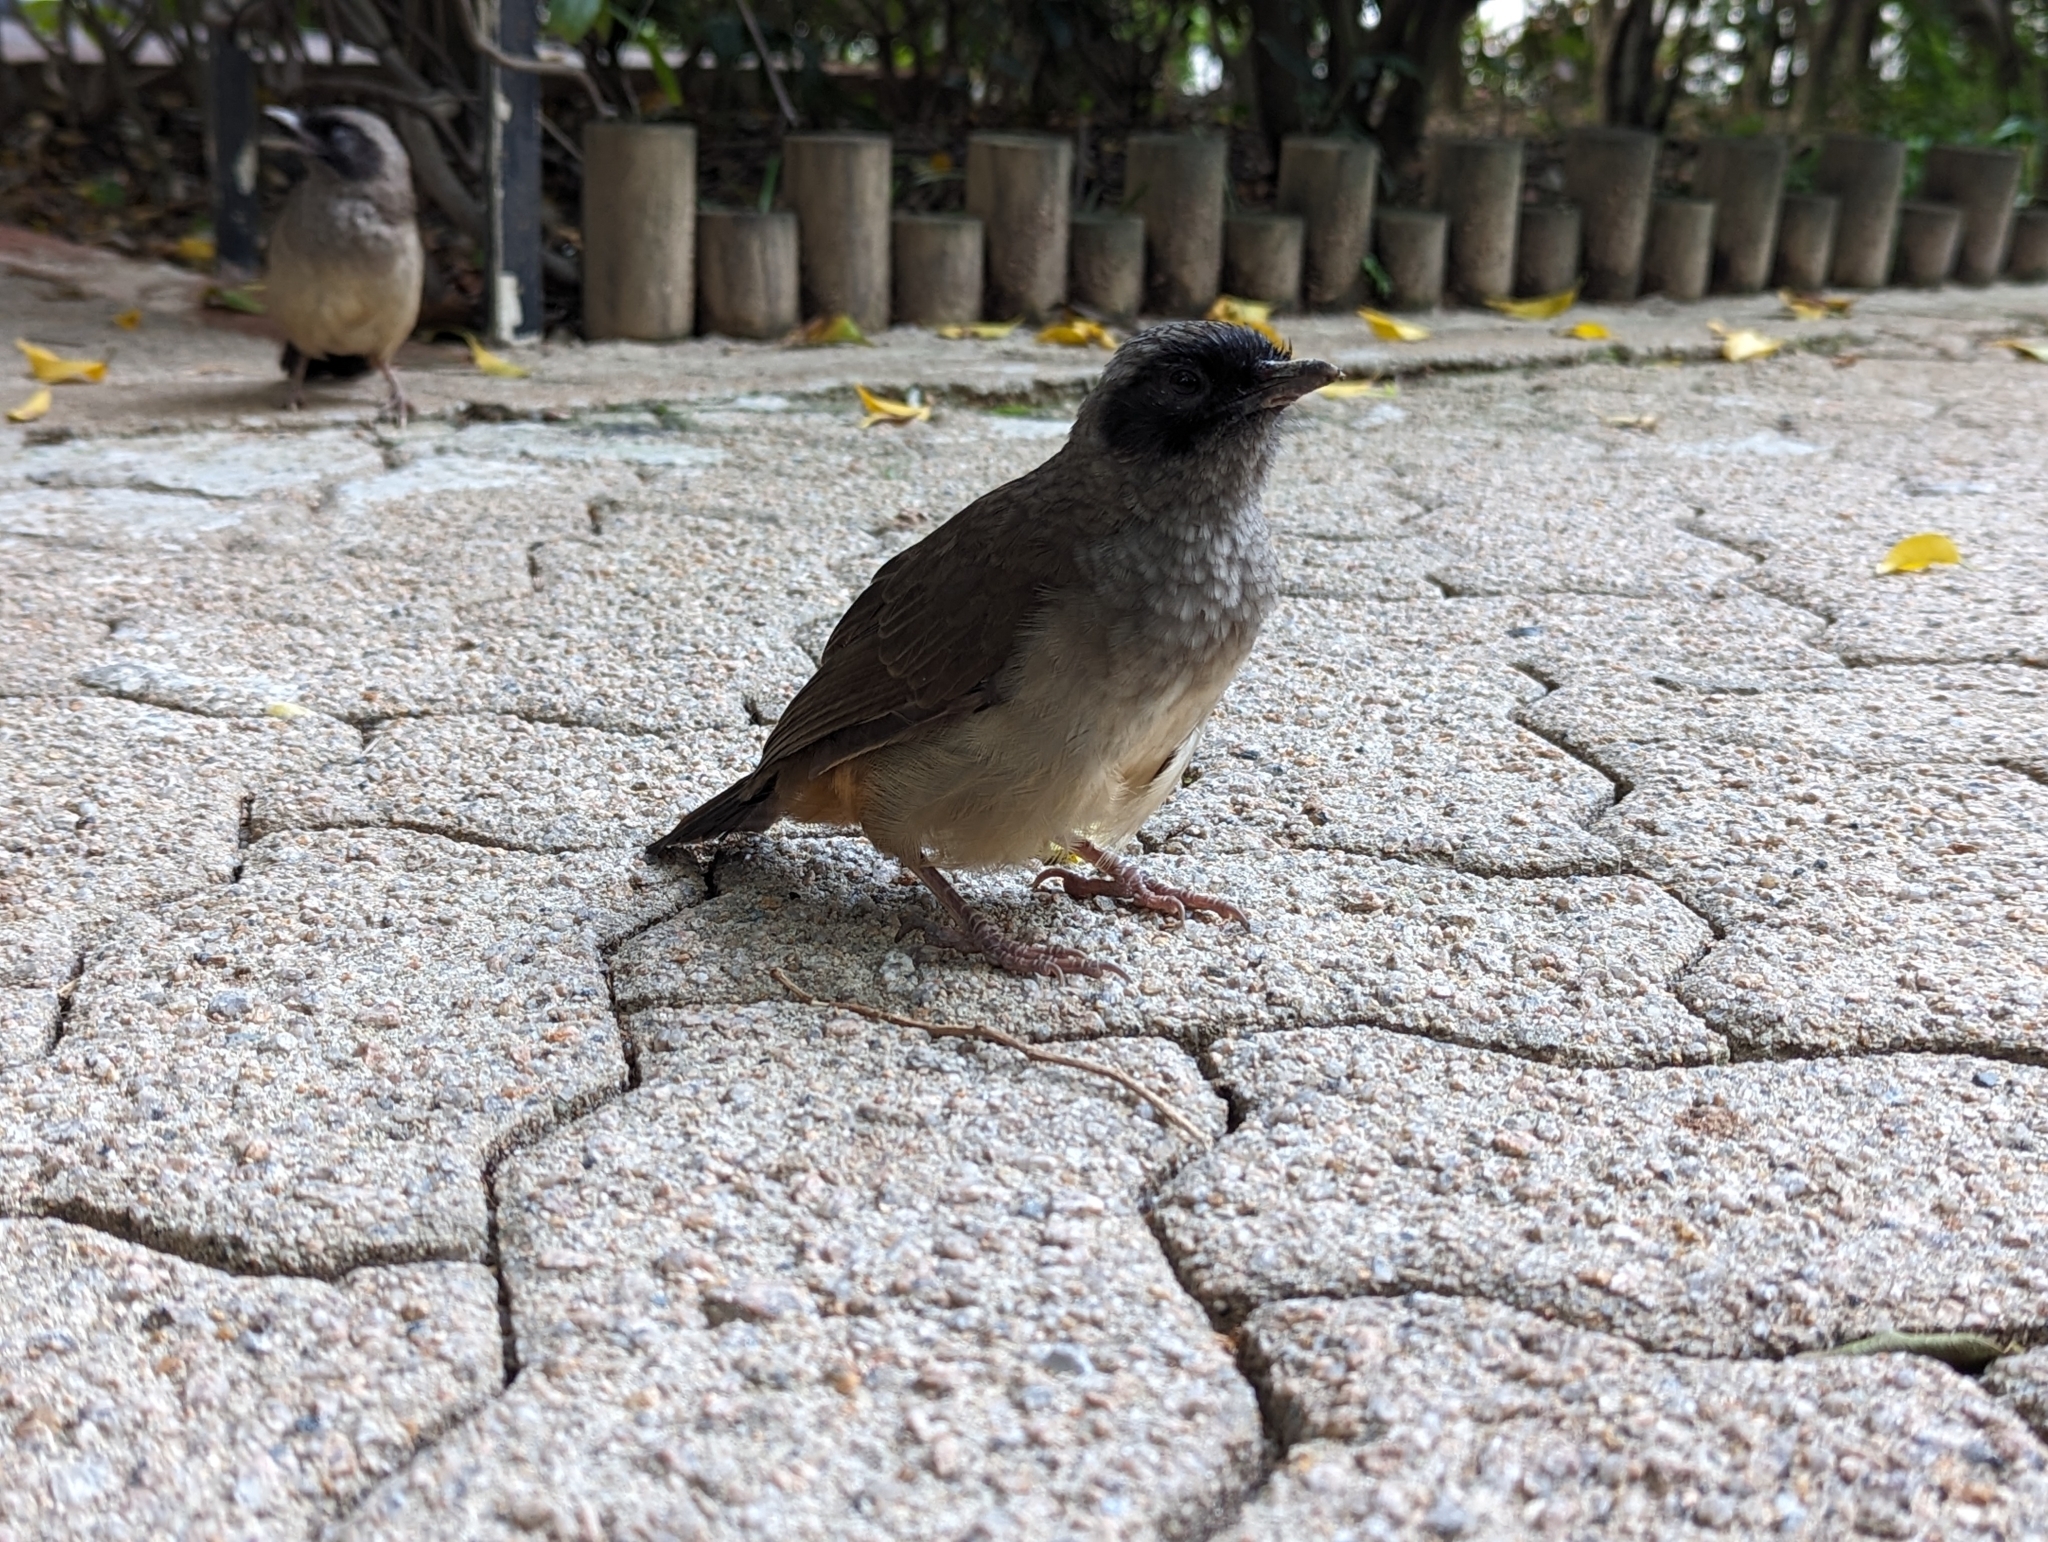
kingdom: Animalia
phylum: Chordata
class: Aves
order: Passeriformes
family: Leiothrichidae
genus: Garrulax
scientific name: Garrulax perspicillatus
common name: Masked laughingthrush
